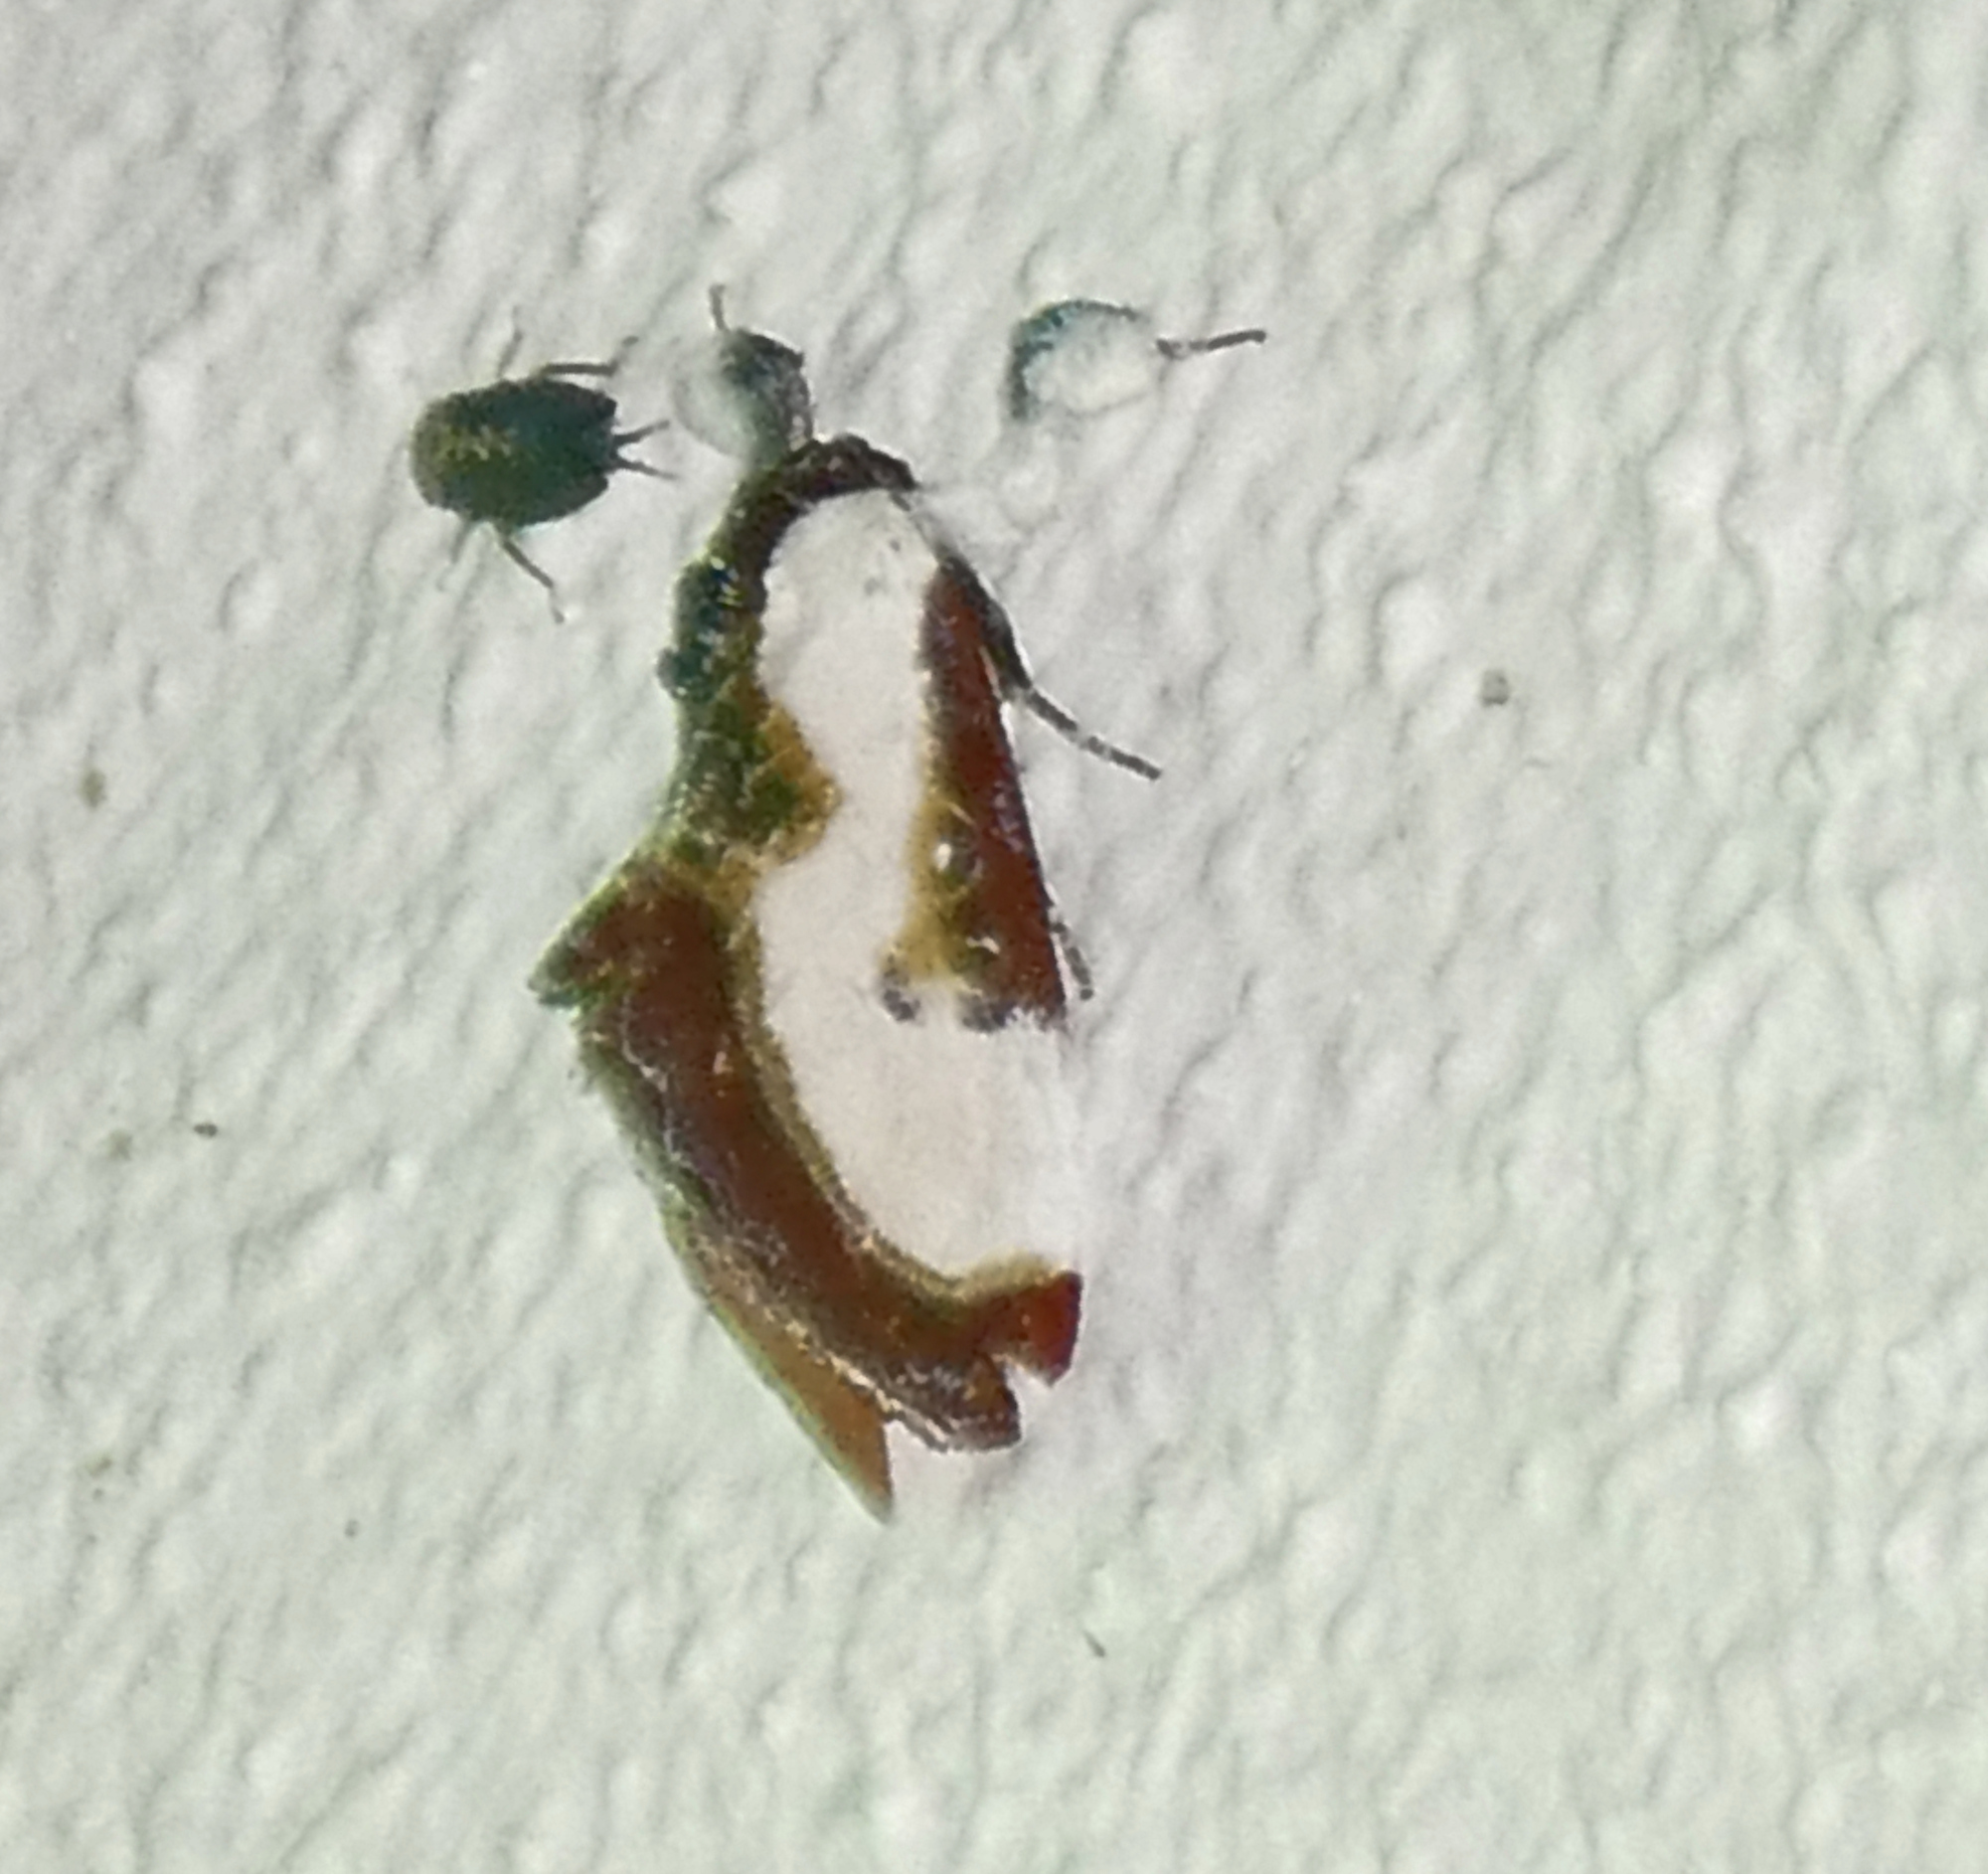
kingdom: Animalia
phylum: Arthropoda
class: Insecta
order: Lepidoptera
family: Noctuidae
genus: Eudryas
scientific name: Eudryas grata
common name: Beautiful wood-nymph
